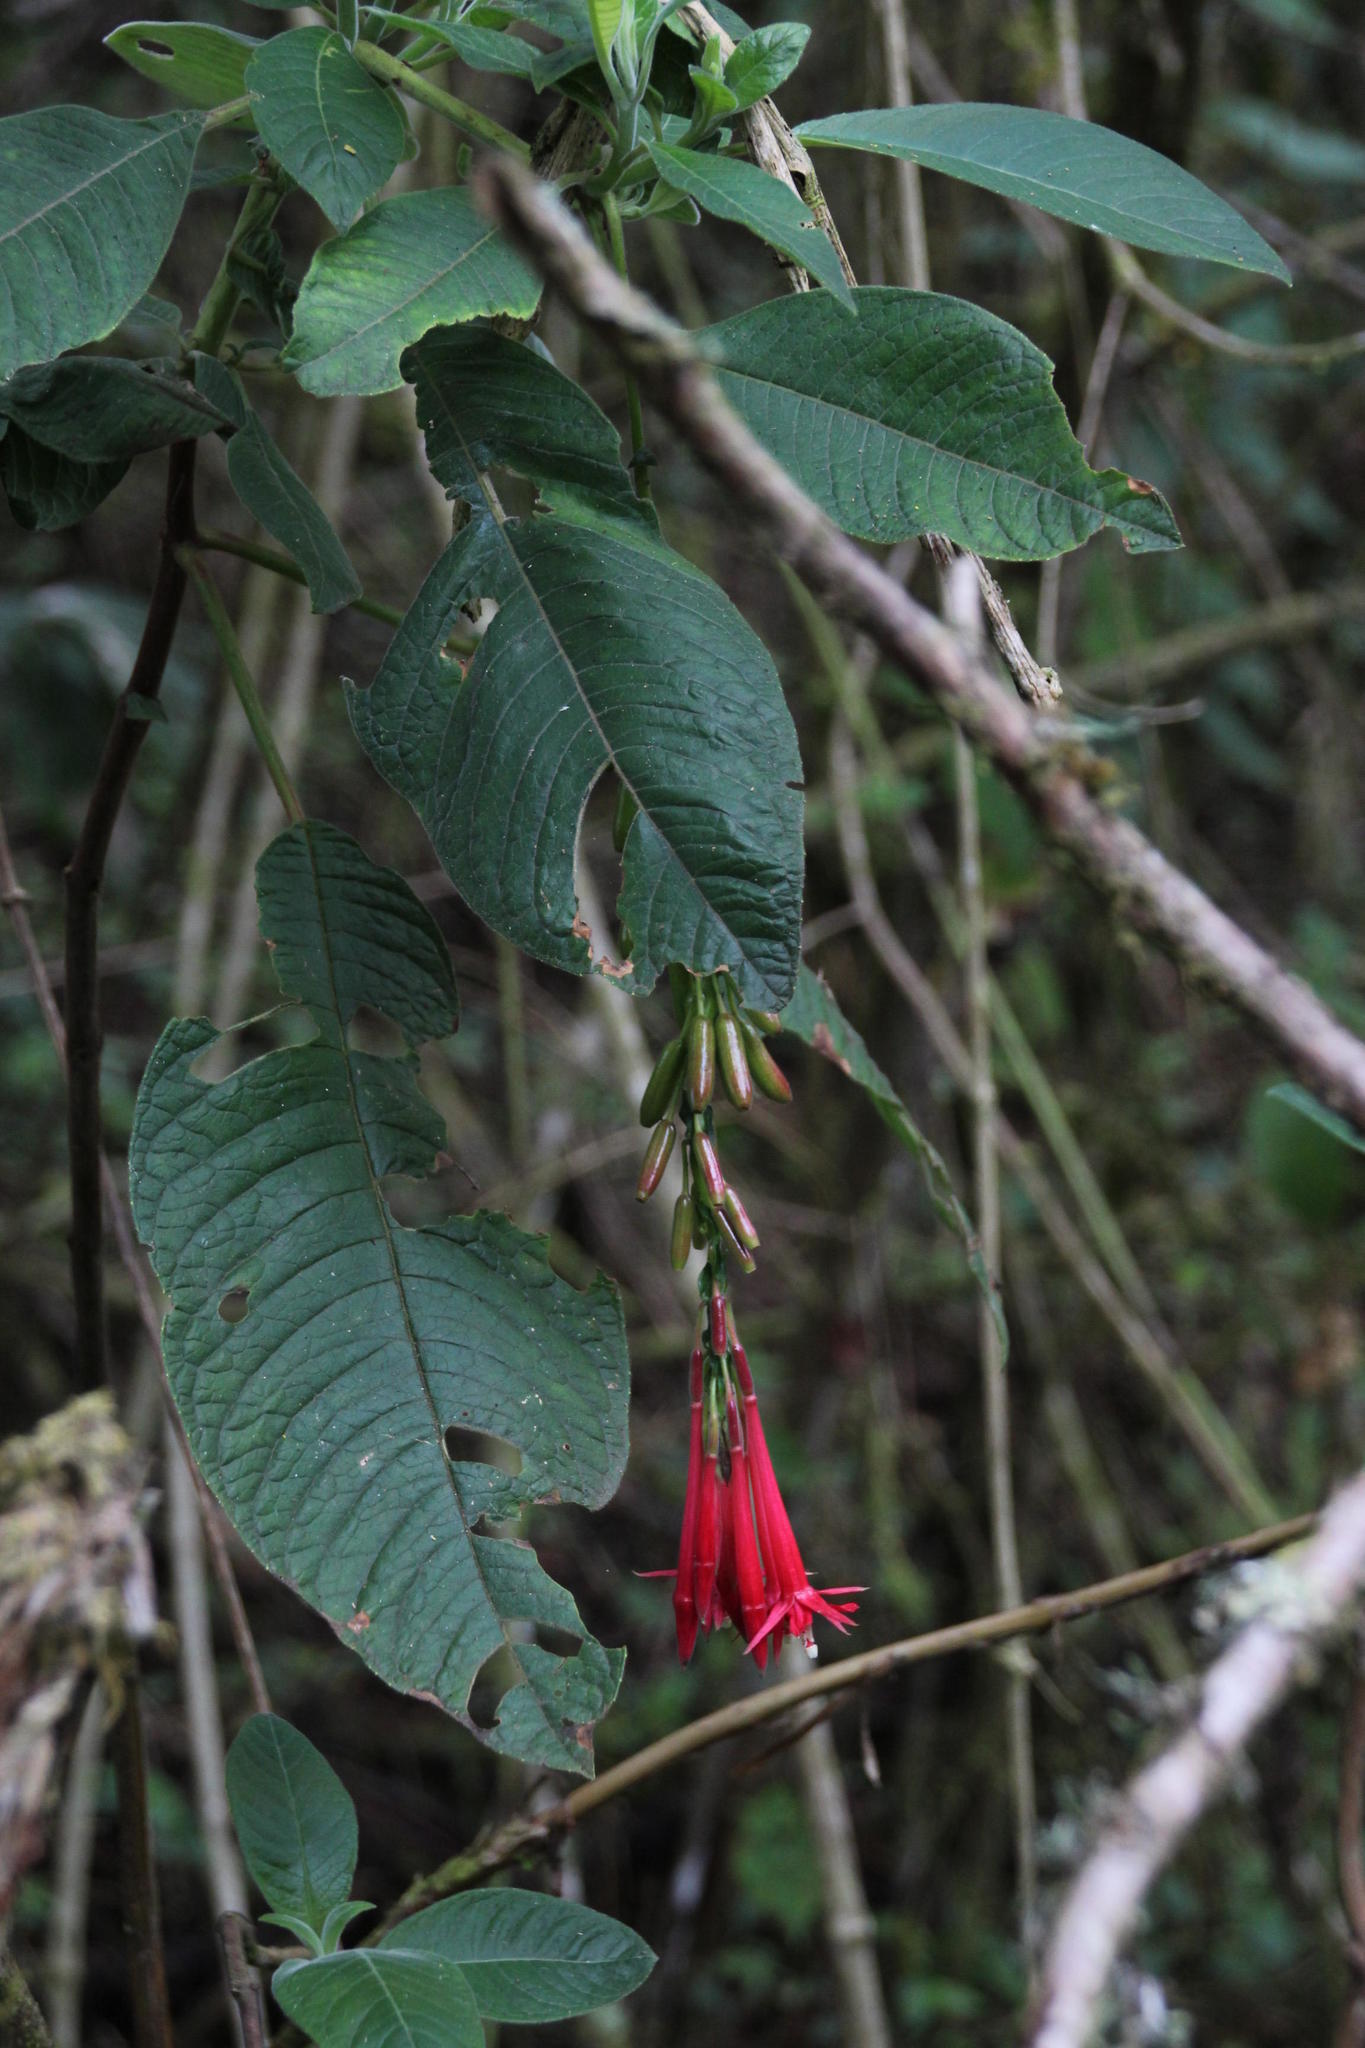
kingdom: Plantae
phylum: Tracheophyta
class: Magnoliopsida
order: Myrtales
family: Onagraceae
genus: Fuchsia
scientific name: Fuchsia boliviana
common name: Bolivian fuchsia
